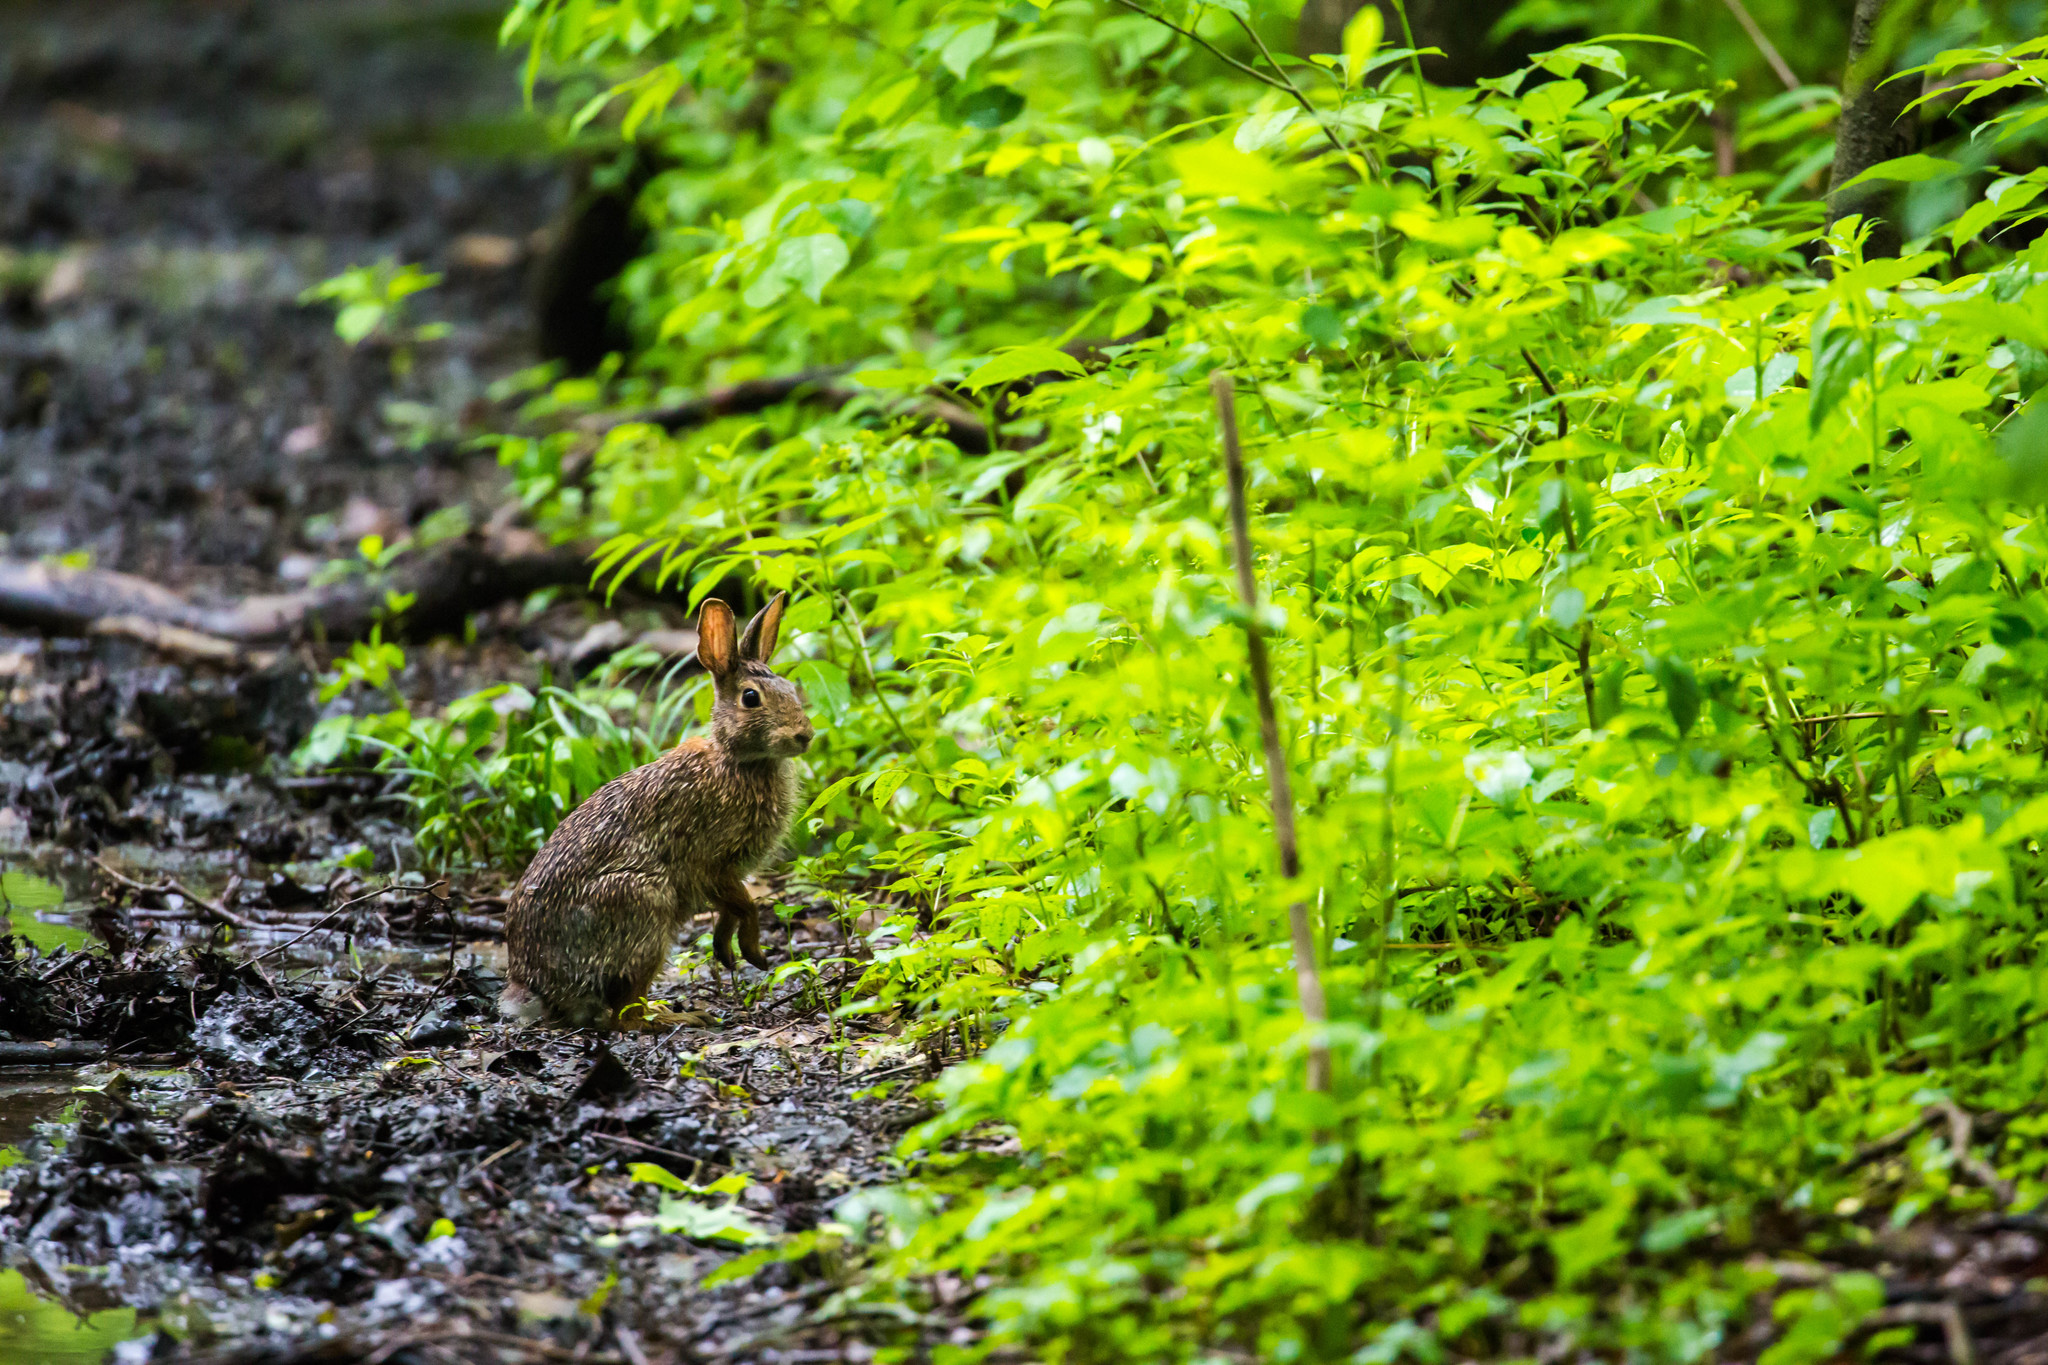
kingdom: Animalia
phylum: Chordata
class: Mammalia
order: Lagomorpha
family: Leporidae
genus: Sylvilagus
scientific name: Sylvilagus floridanus
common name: Eastern cottontail
